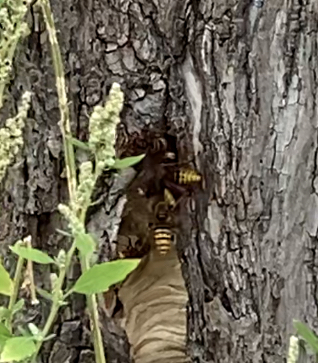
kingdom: Animalia
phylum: Arthropoda
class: Insecta
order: Hymenoptera
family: Vespidae
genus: Vespa
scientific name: Vespa crabro
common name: Hornet
